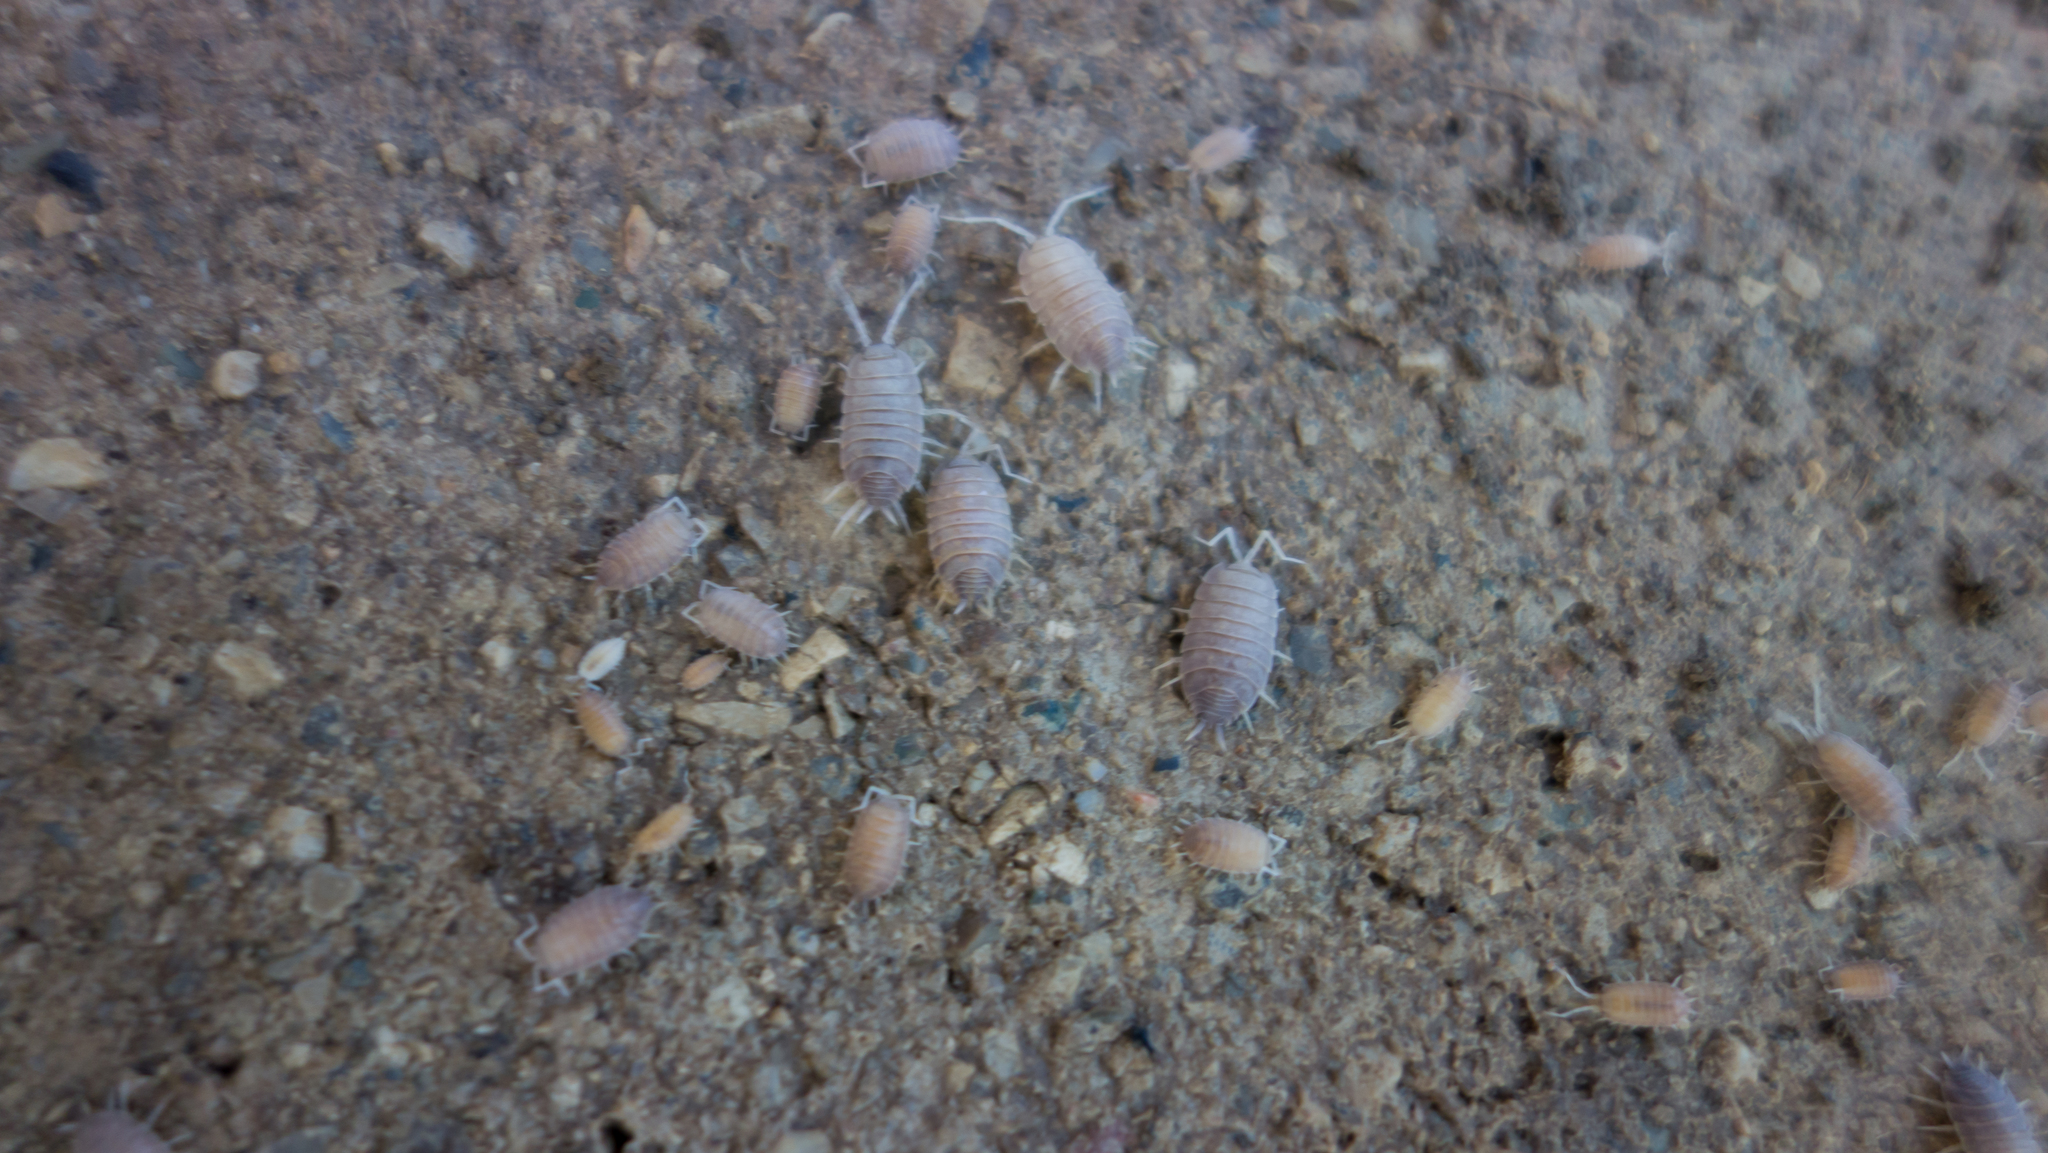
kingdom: Animalia
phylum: Arthropoda
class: Malacostraca
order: Isopoda
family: Porcellionidae
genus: Porcellionides
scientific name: Porcellionides myrmecophilus
